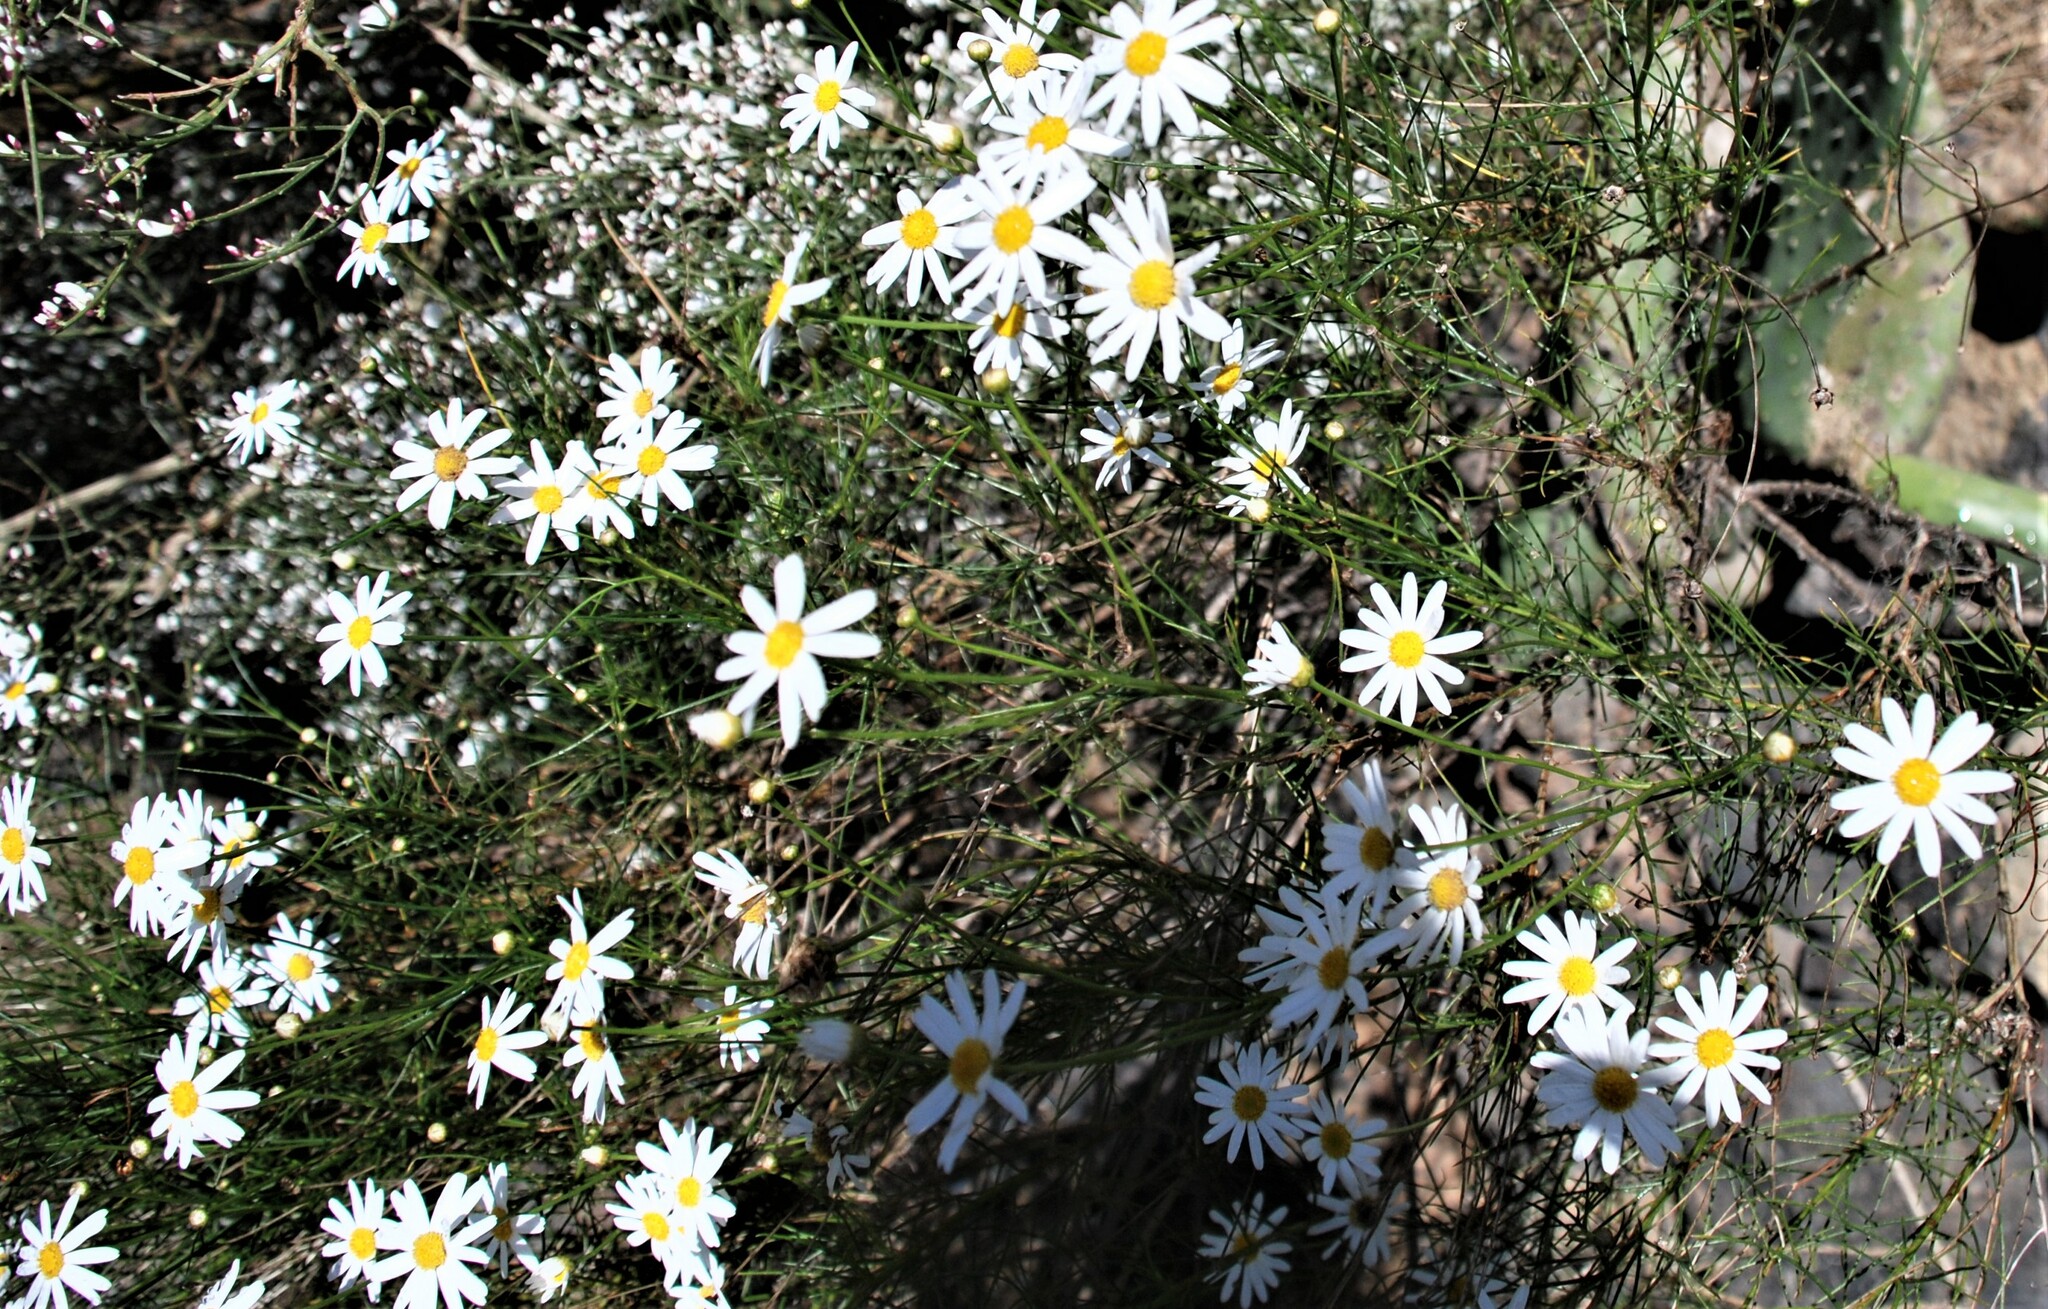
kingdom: Plantae
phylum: Tracheophyta
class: Magnoliopsida
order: Asterales
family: Asteraceae
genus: Argyranthemum
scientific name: Argyranthemum gracile
